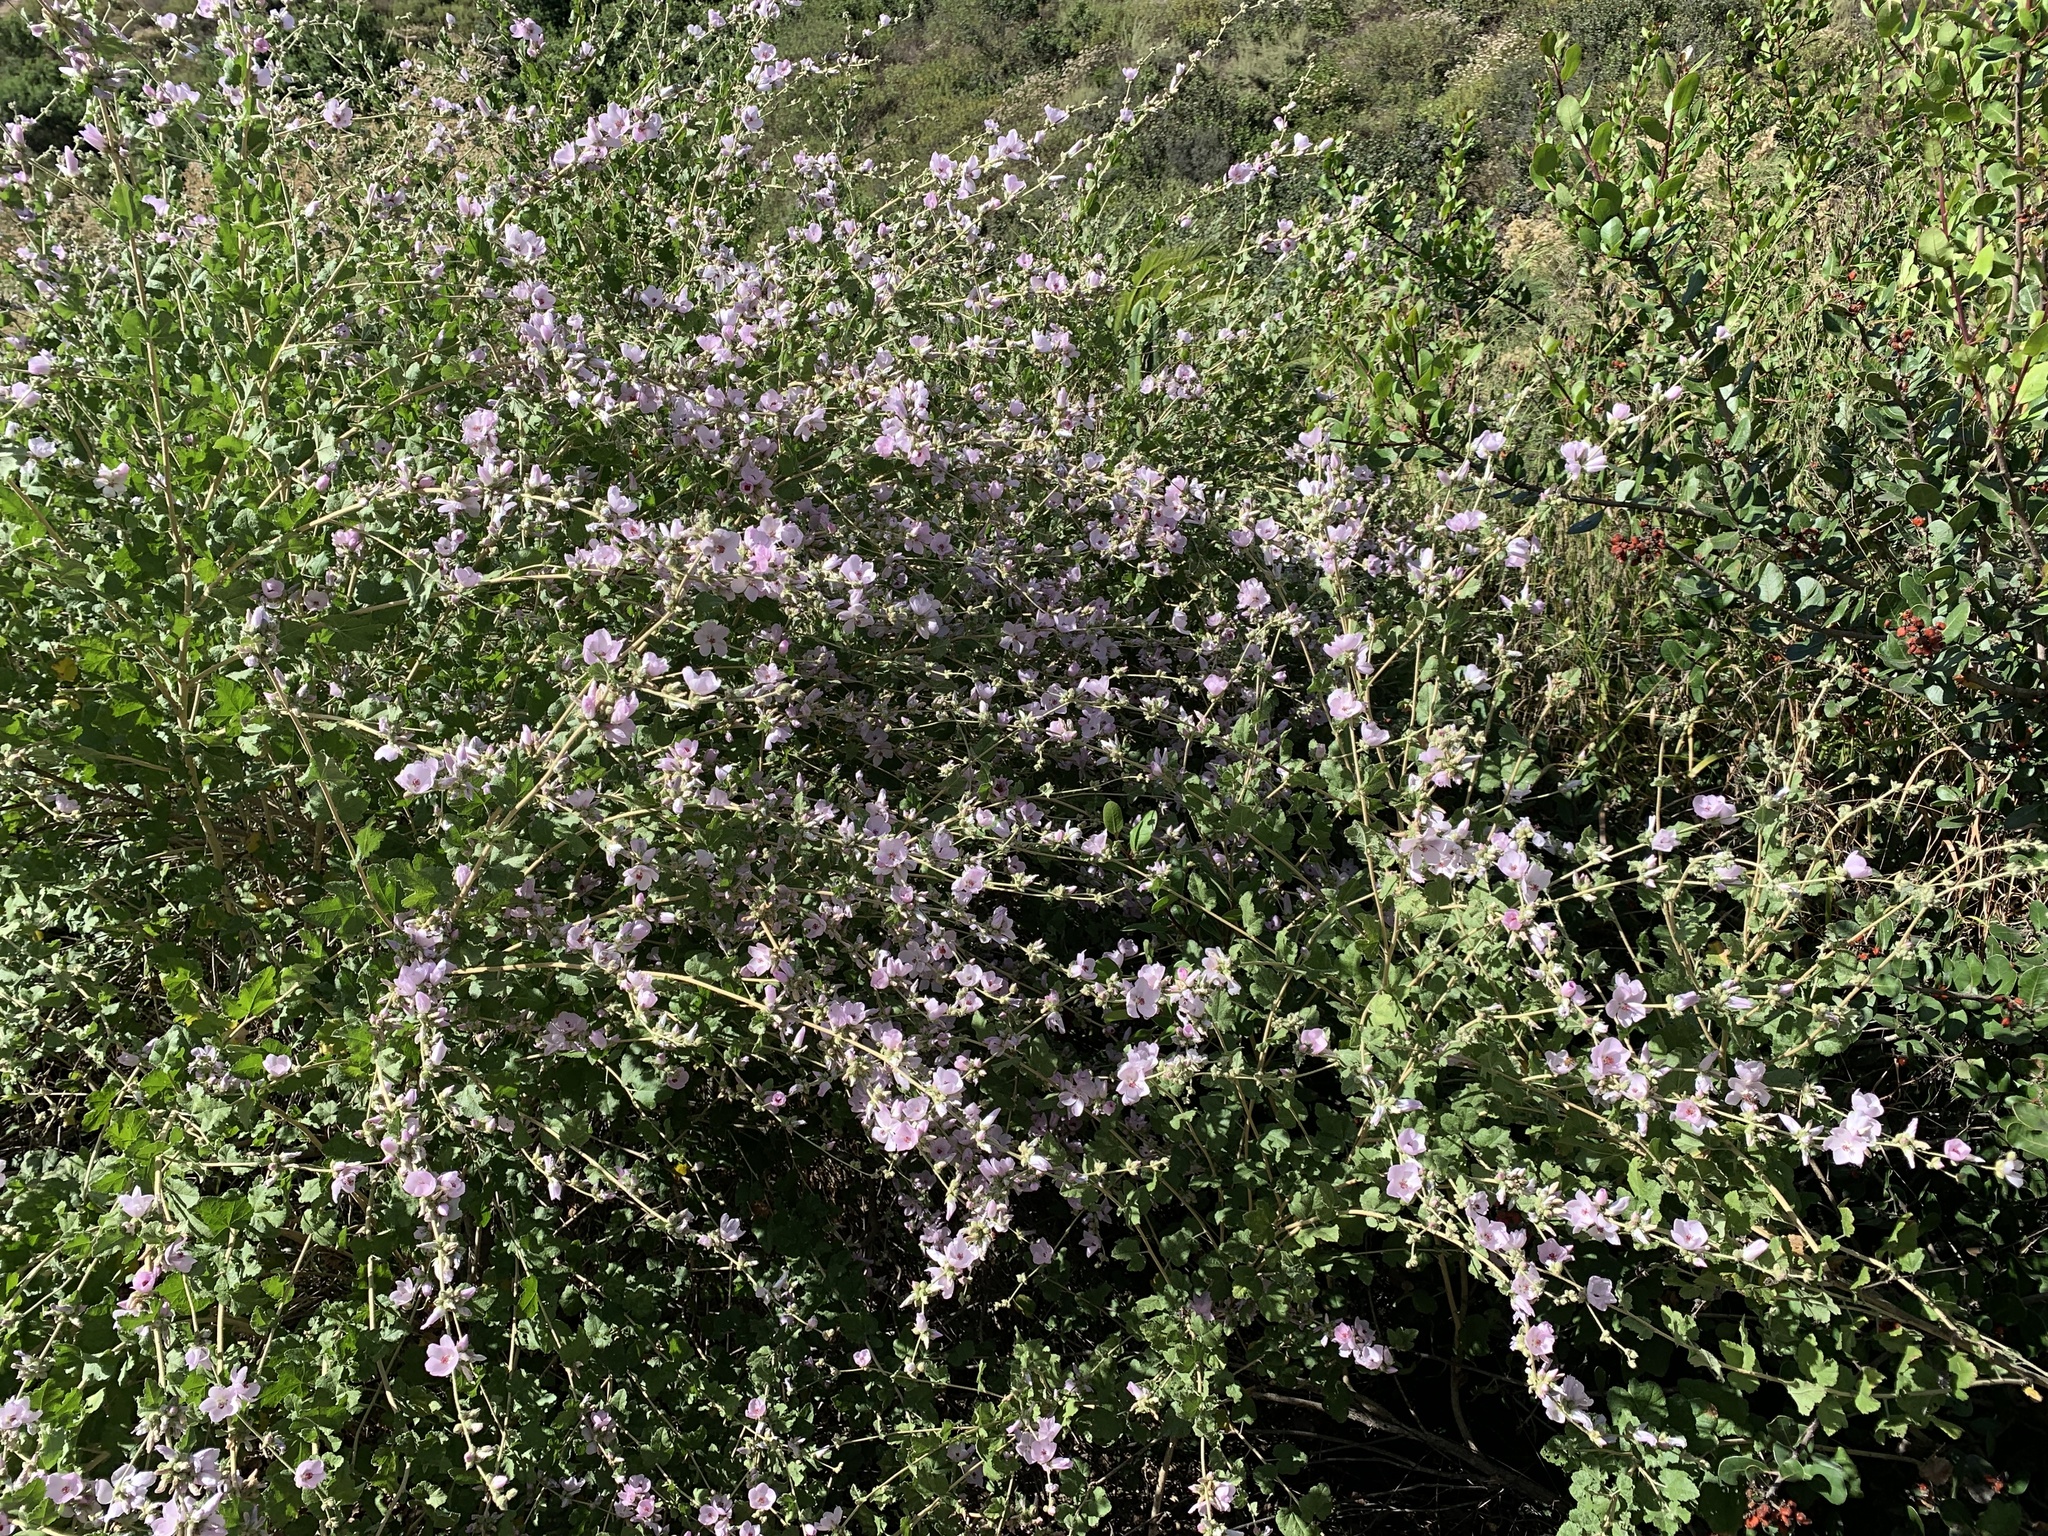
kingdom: Plantae
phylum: Tracheophyta
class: Magnoliopsida
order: Malvales
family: Malvaceae
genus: Malacothamnus
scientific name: Malacothamnus fasciculatus
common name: Sant cruz island bush-mallow
